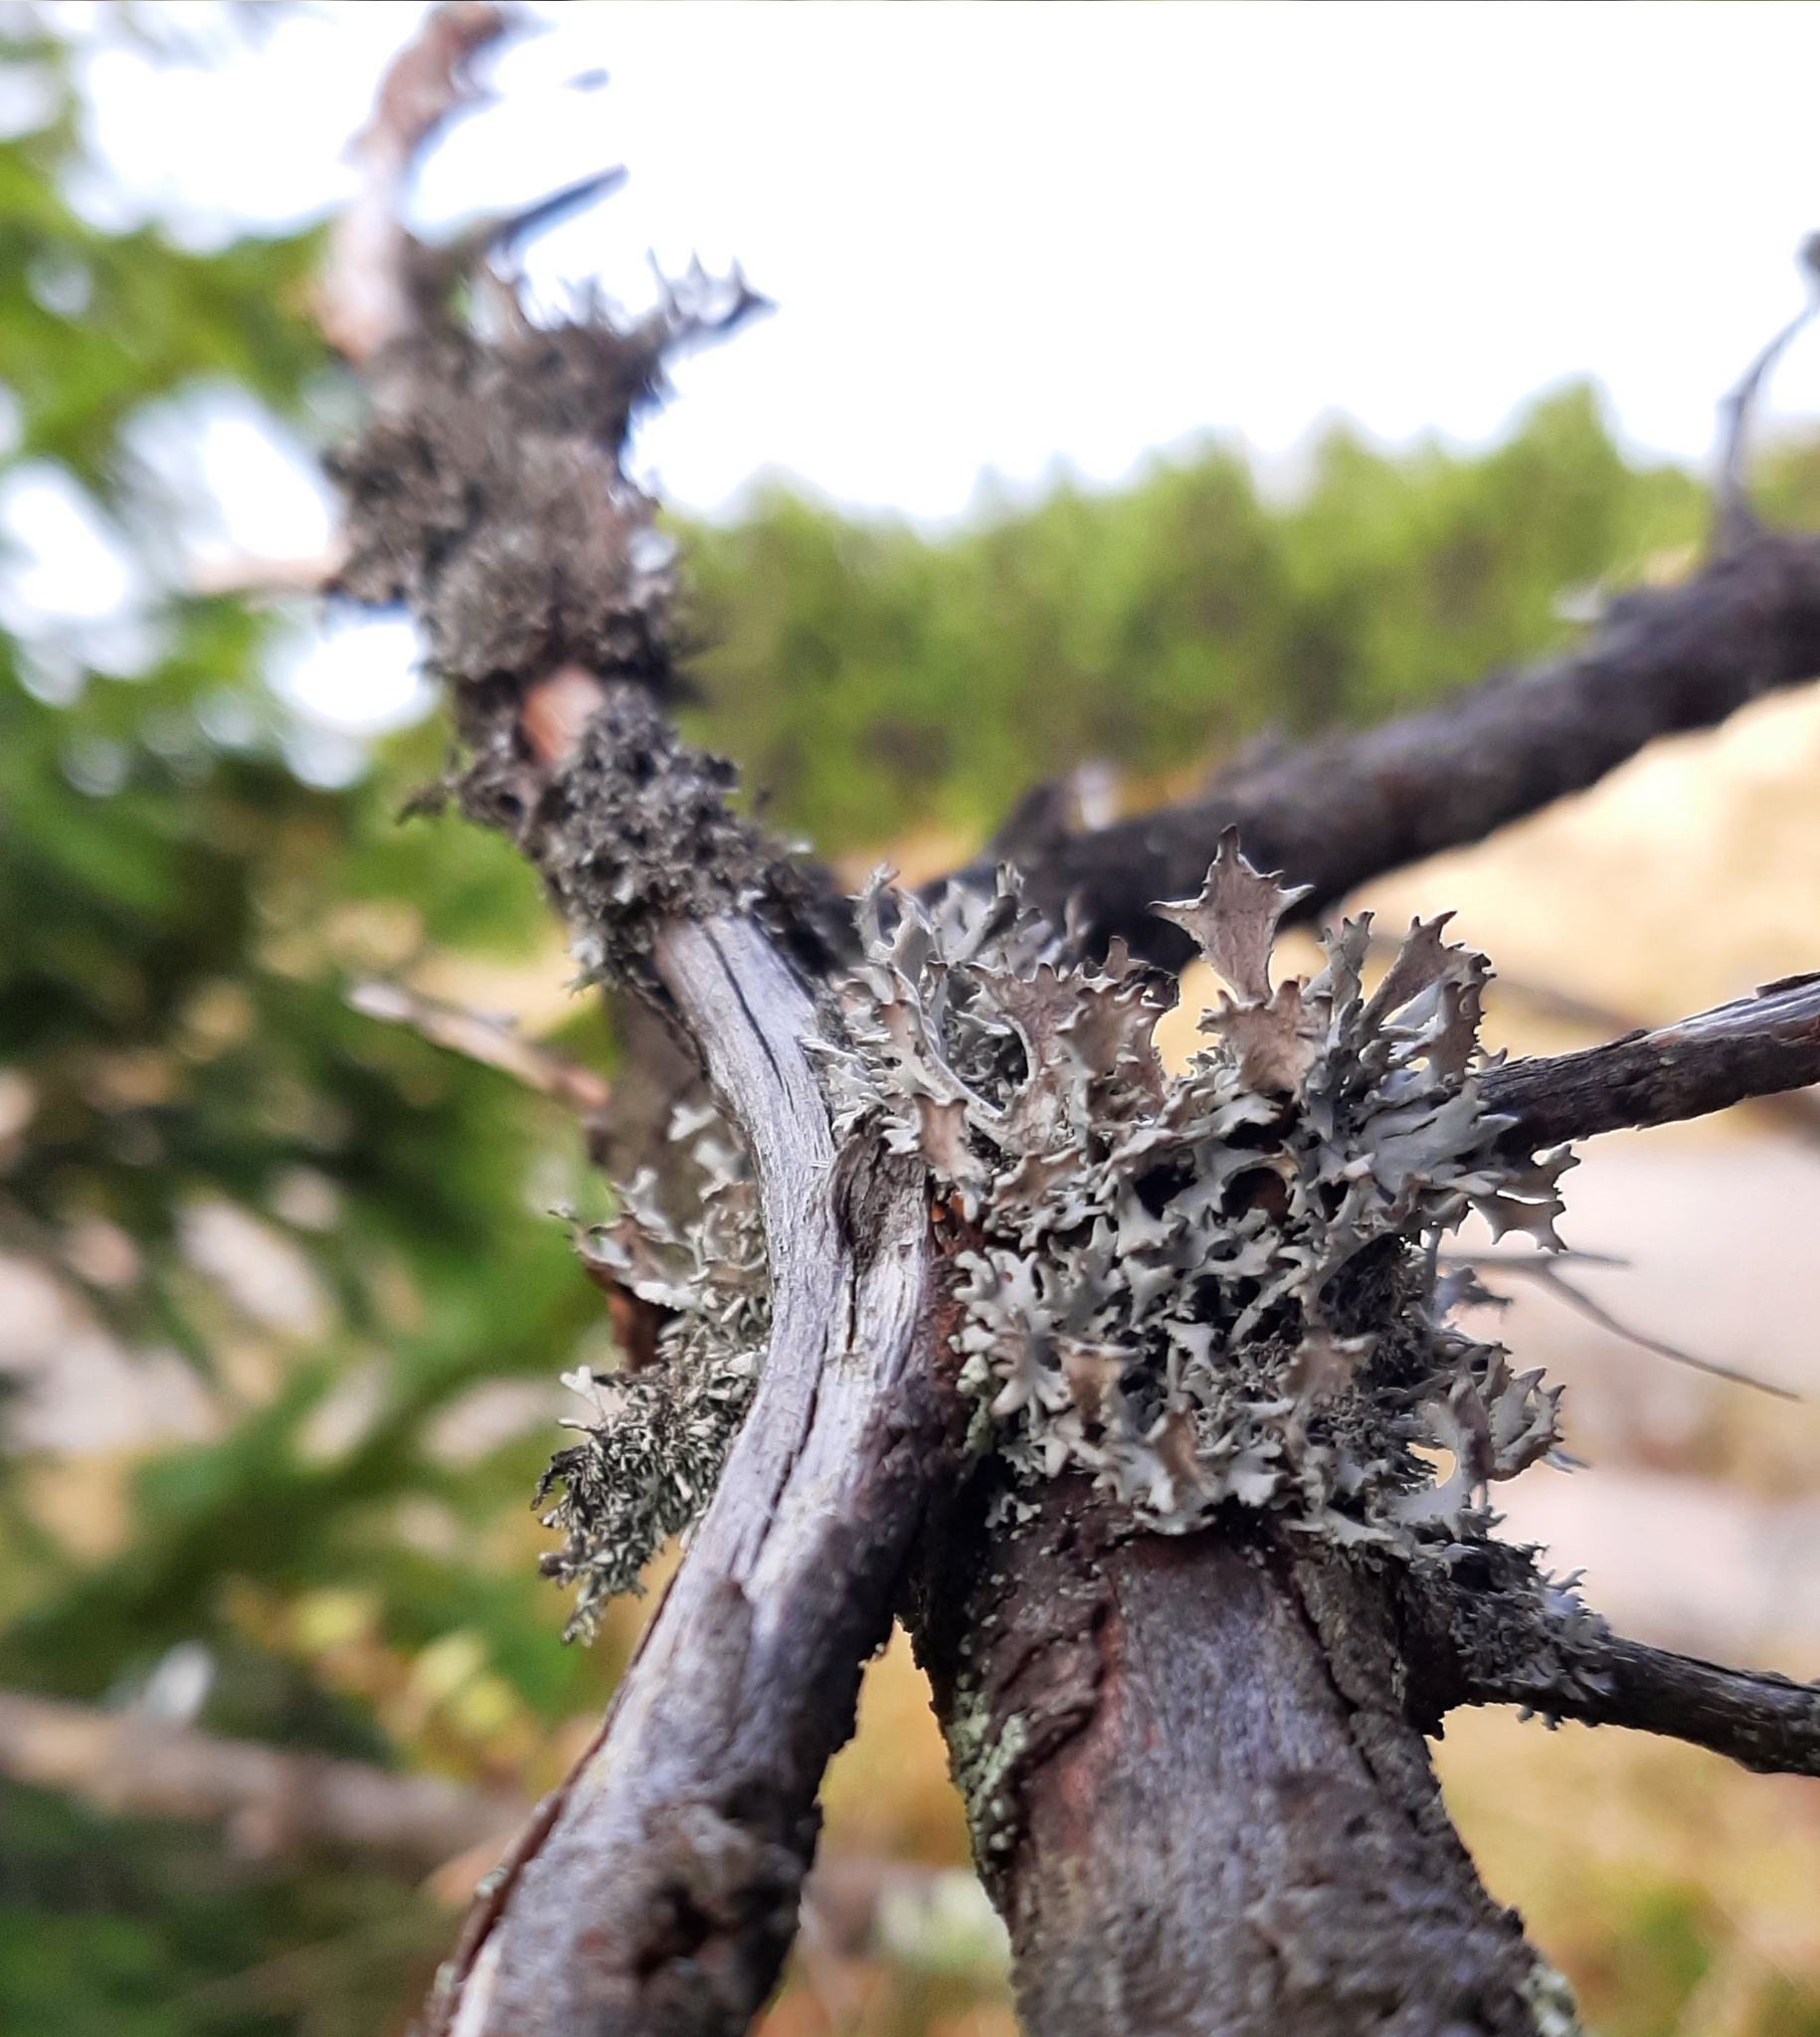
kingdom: Fungi
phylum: Ascomycota
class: Lecanoromycetes
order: Lecanorales
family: Parmeliaceae
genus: Pseudevernia
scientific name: Pseudevernia furfuracea
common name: Tree moss
